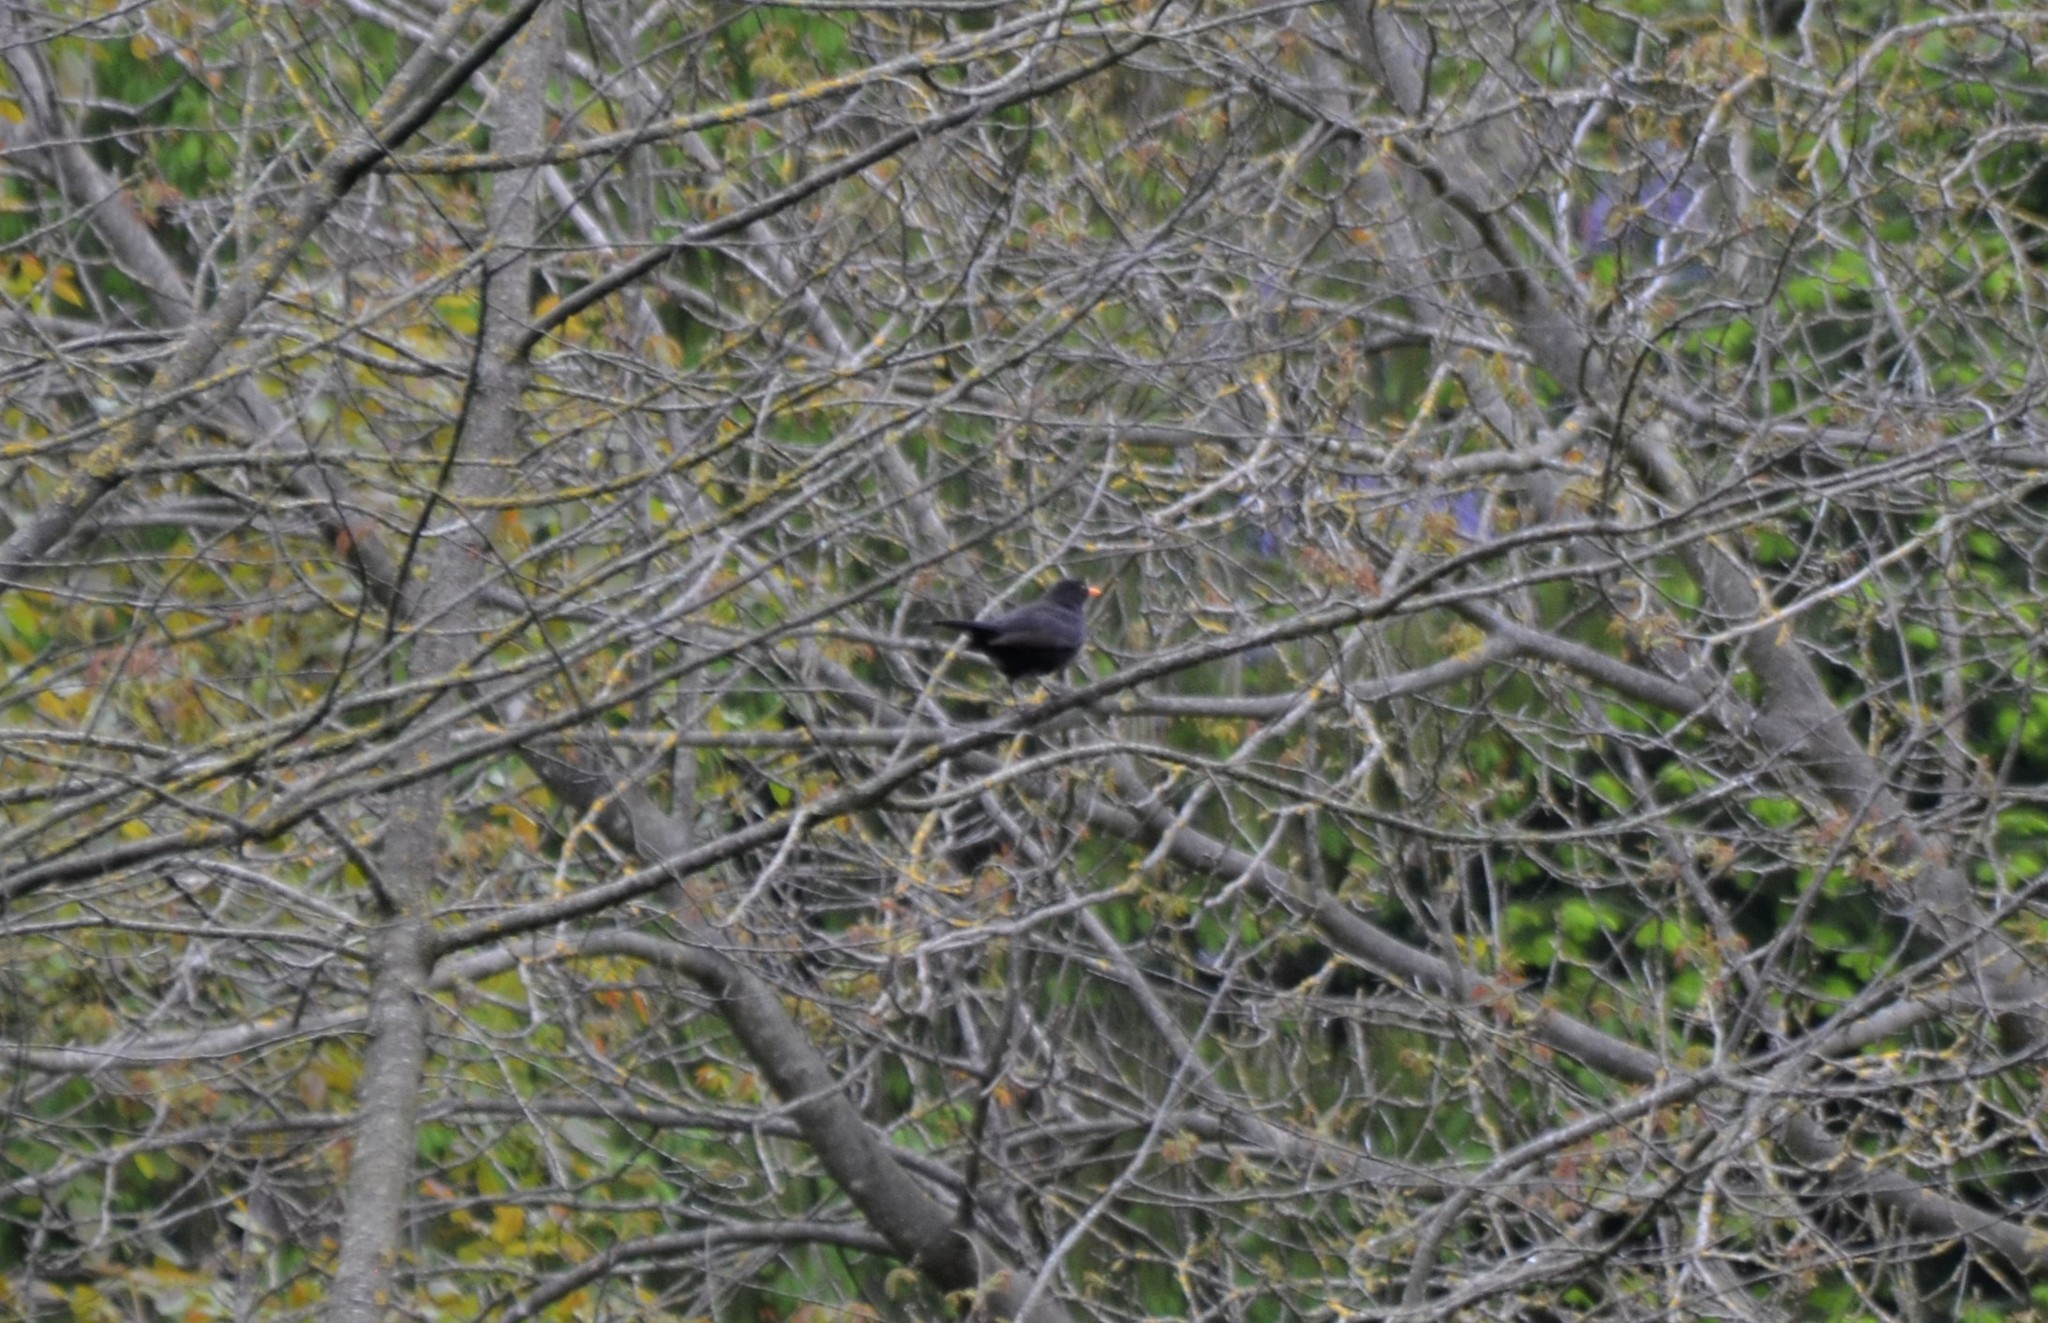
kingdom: Animalia
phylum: Chordata
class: Aves
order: Passeriformes
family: Turdidae
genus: Turdus
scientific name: Turdus merula
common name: Common blackbird
